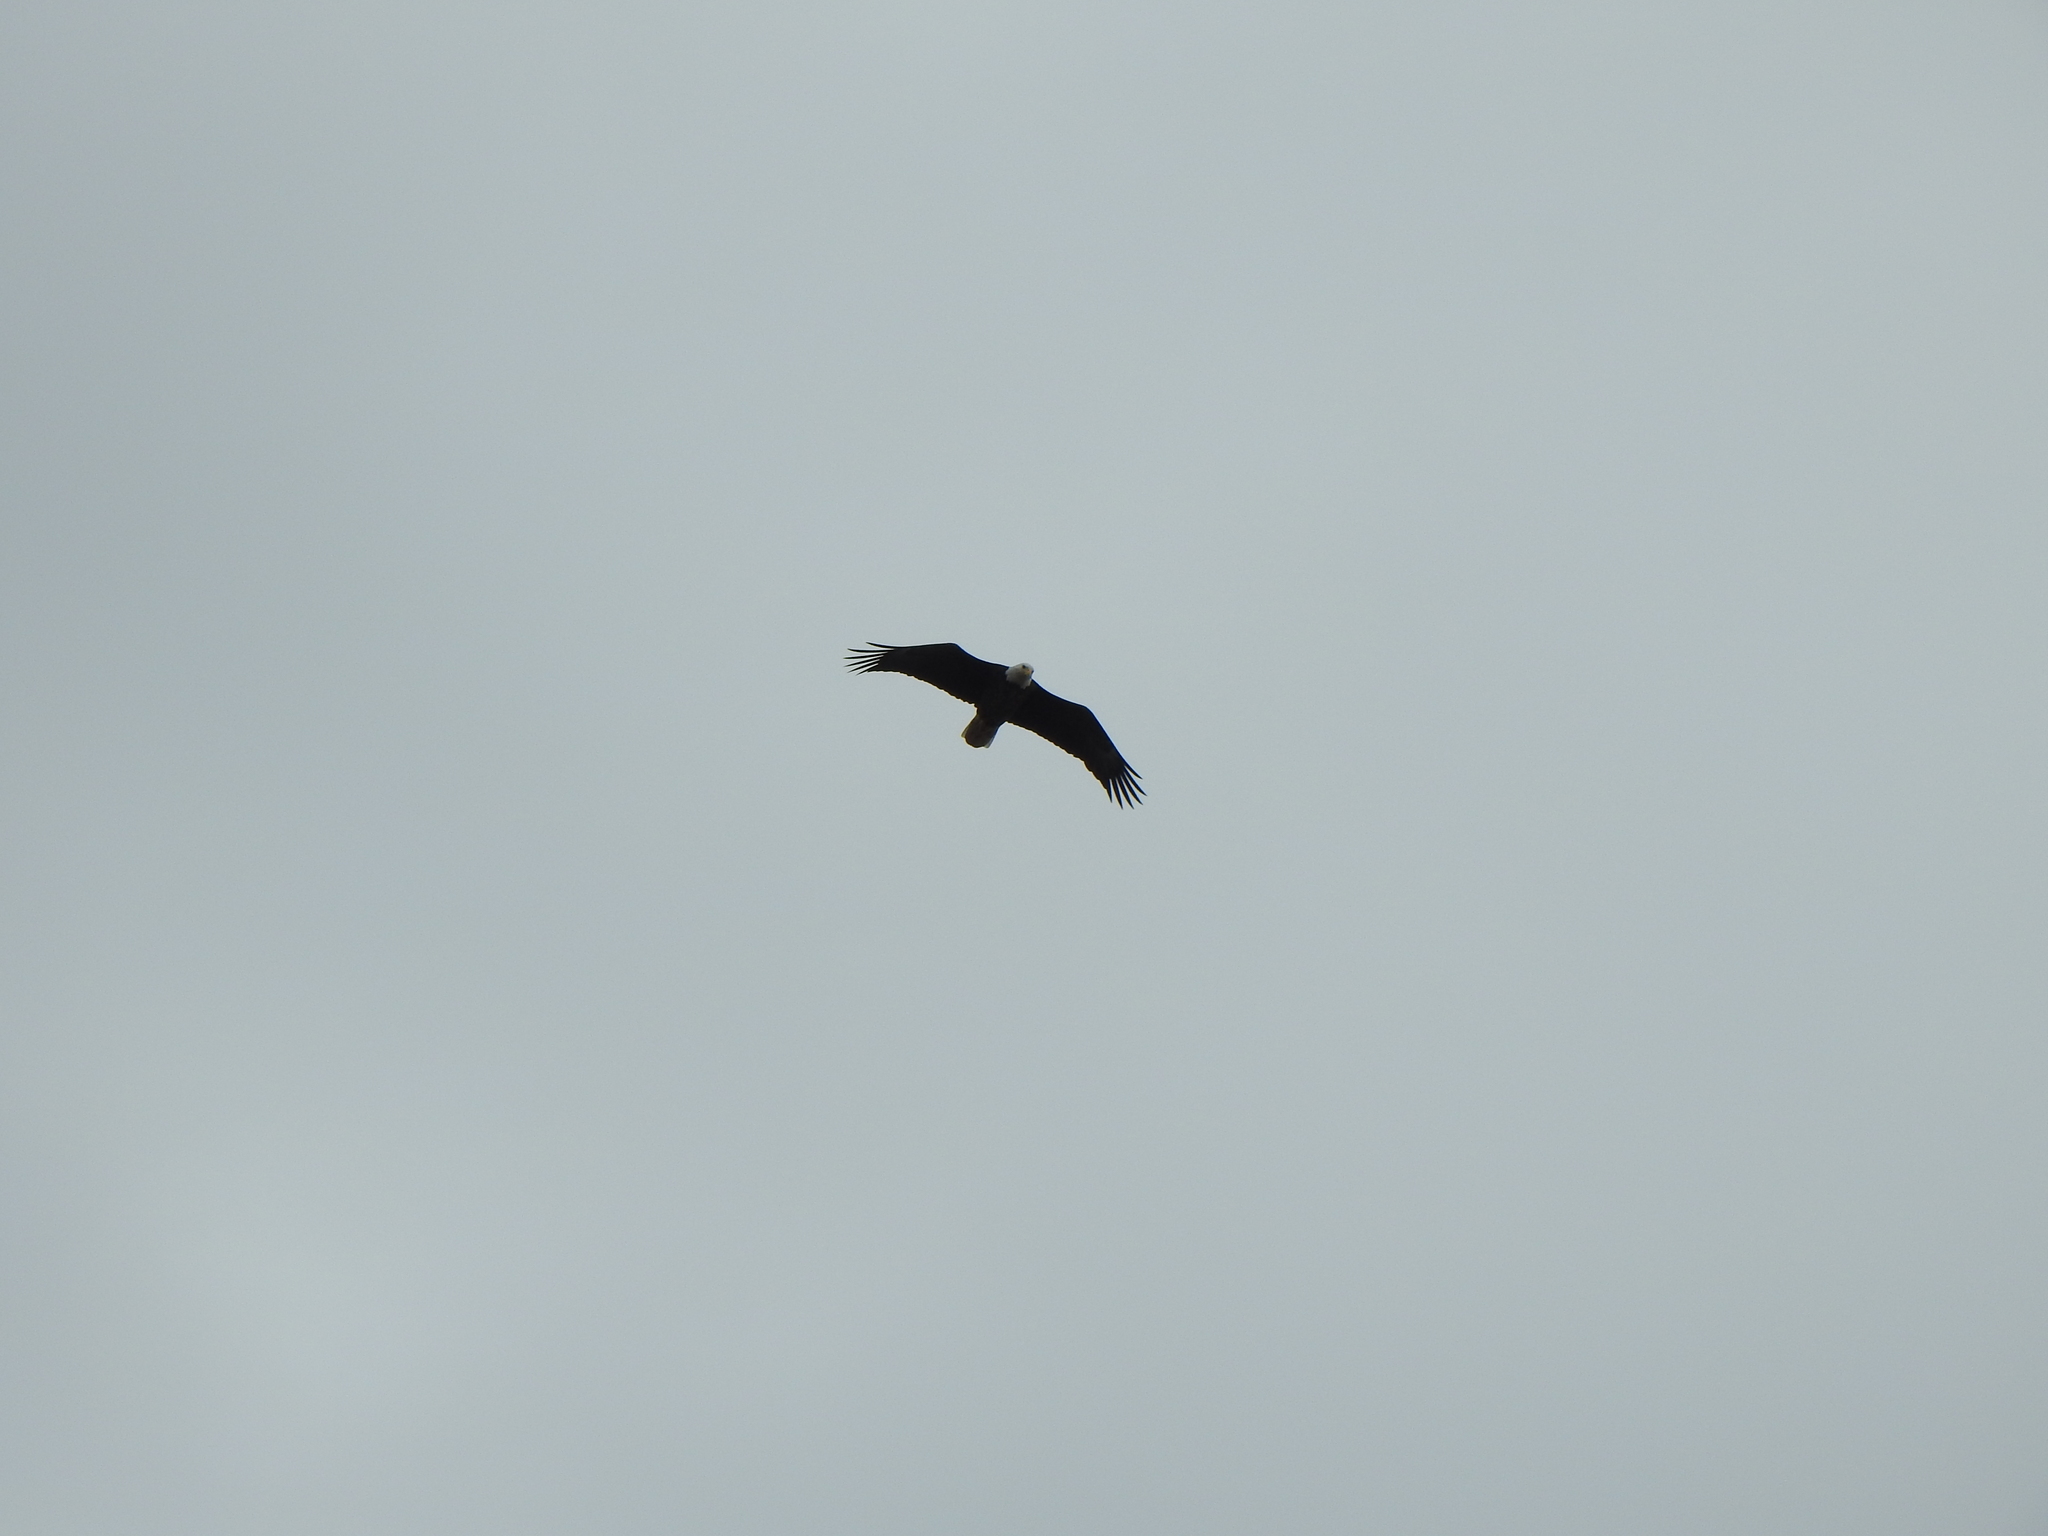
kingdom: Animalia
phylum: Chordata
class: Aves
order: Accipitriformes
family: Accipitridae
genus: Haliaeetus
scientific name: Haliaeetus leucocephalus
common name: Bald eagle
